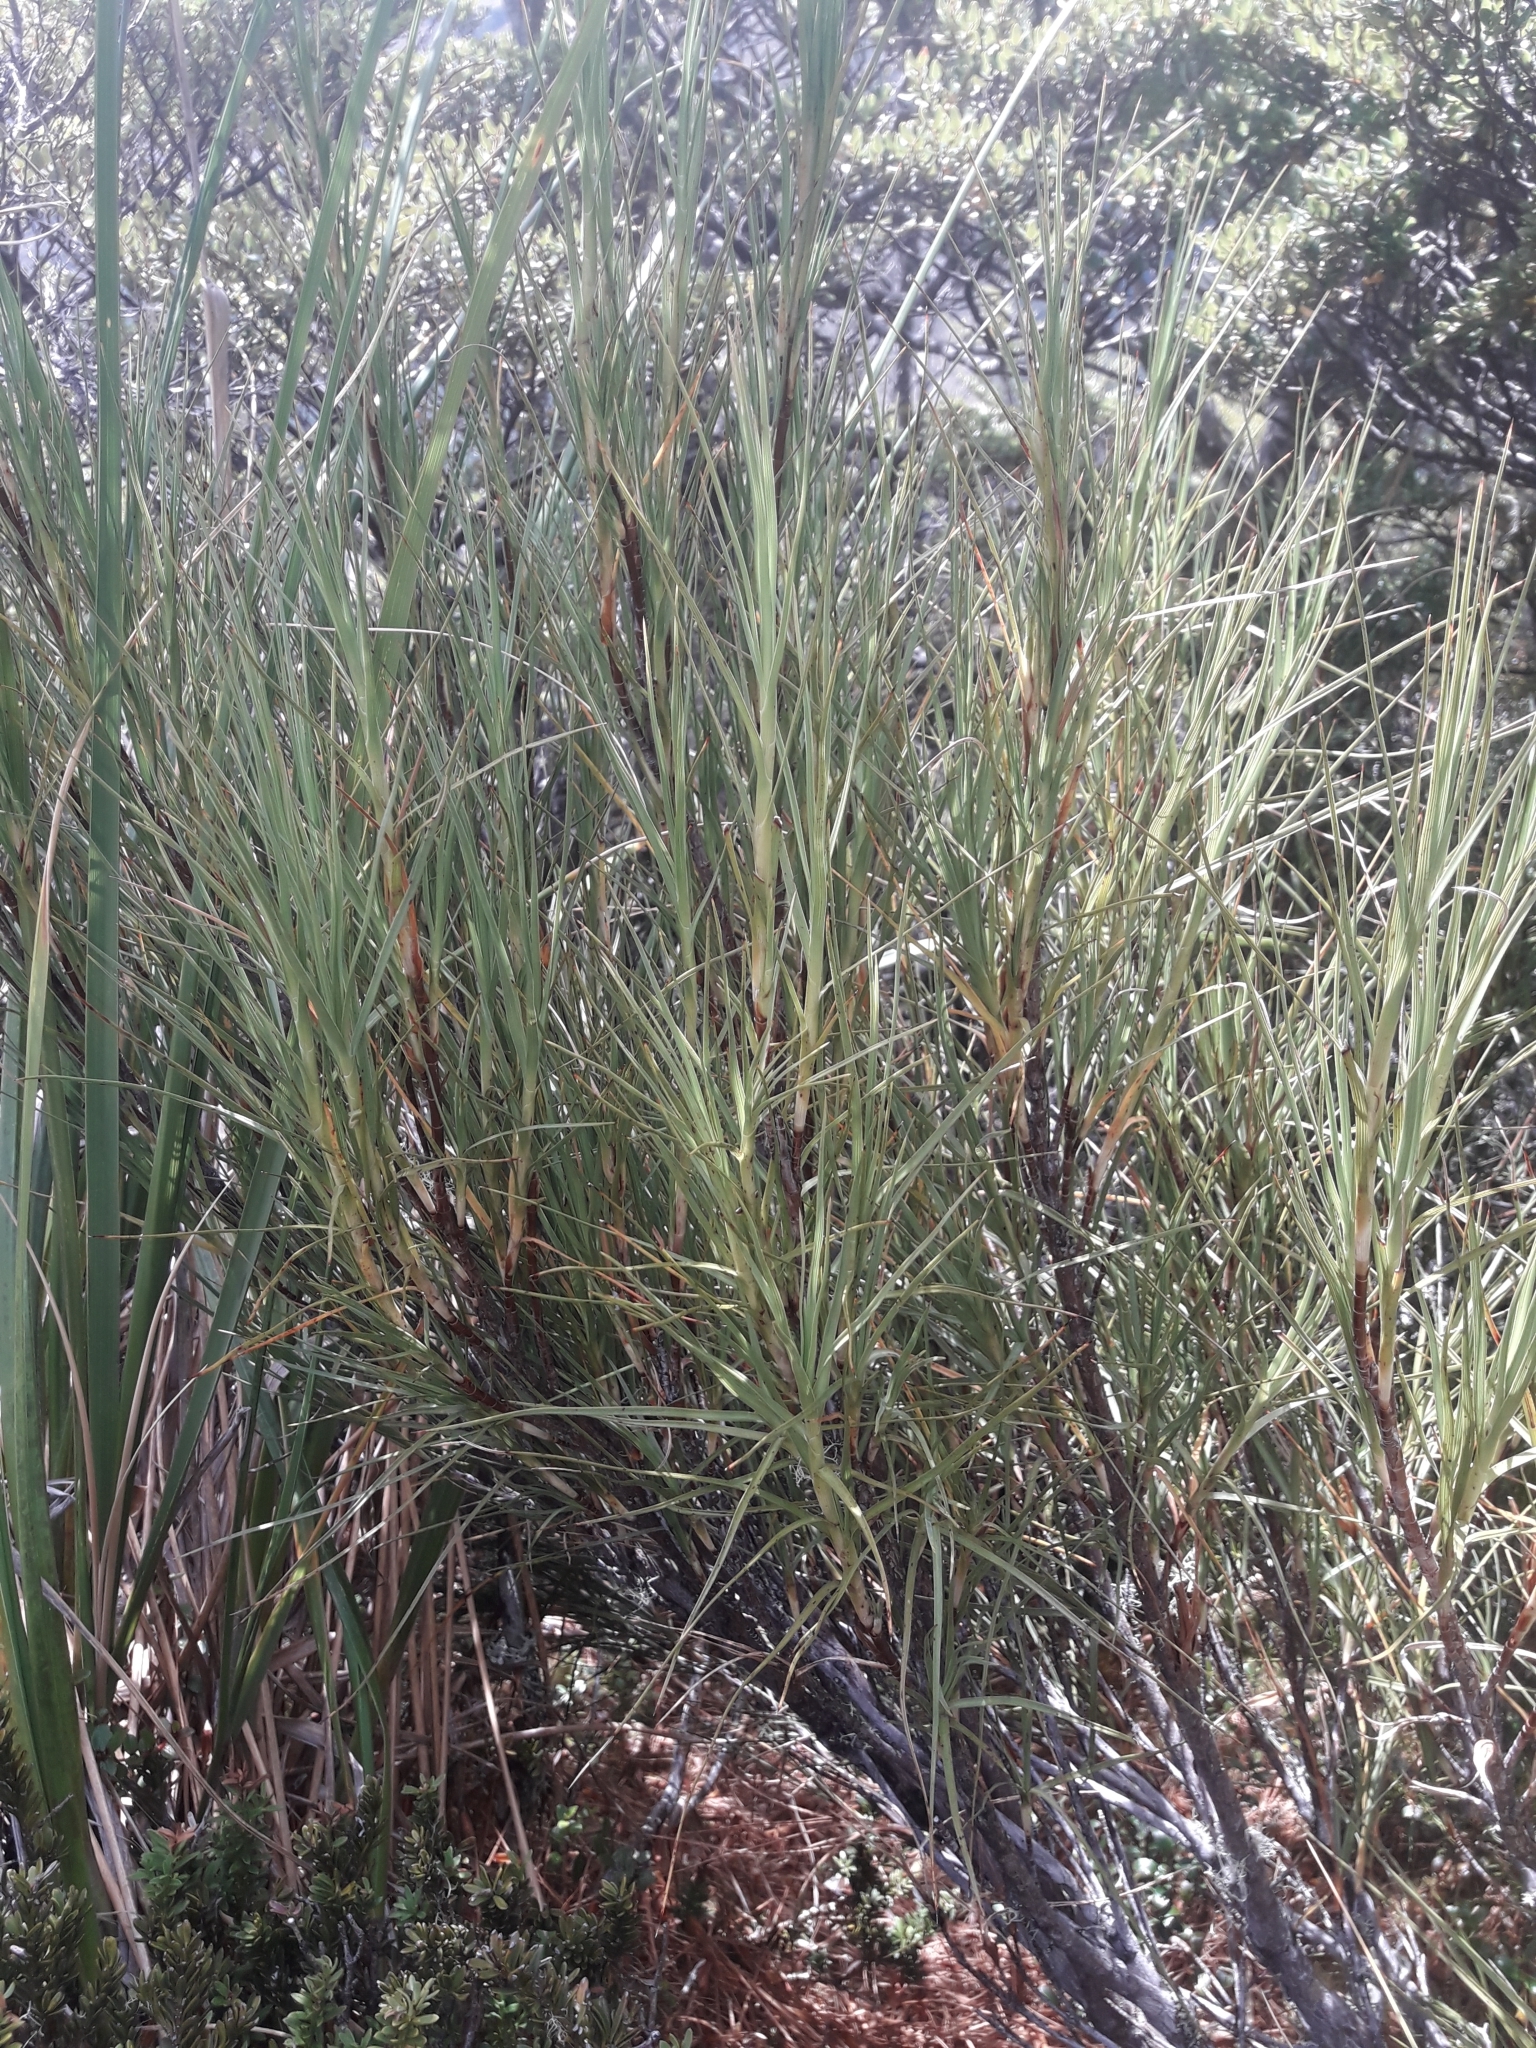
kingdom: Plantae
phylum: Tracheophyta
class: Magnoliopsida
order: Ericales
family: Ericaceae
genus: Dracophyllum
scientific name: Dracophyllum longifolium
